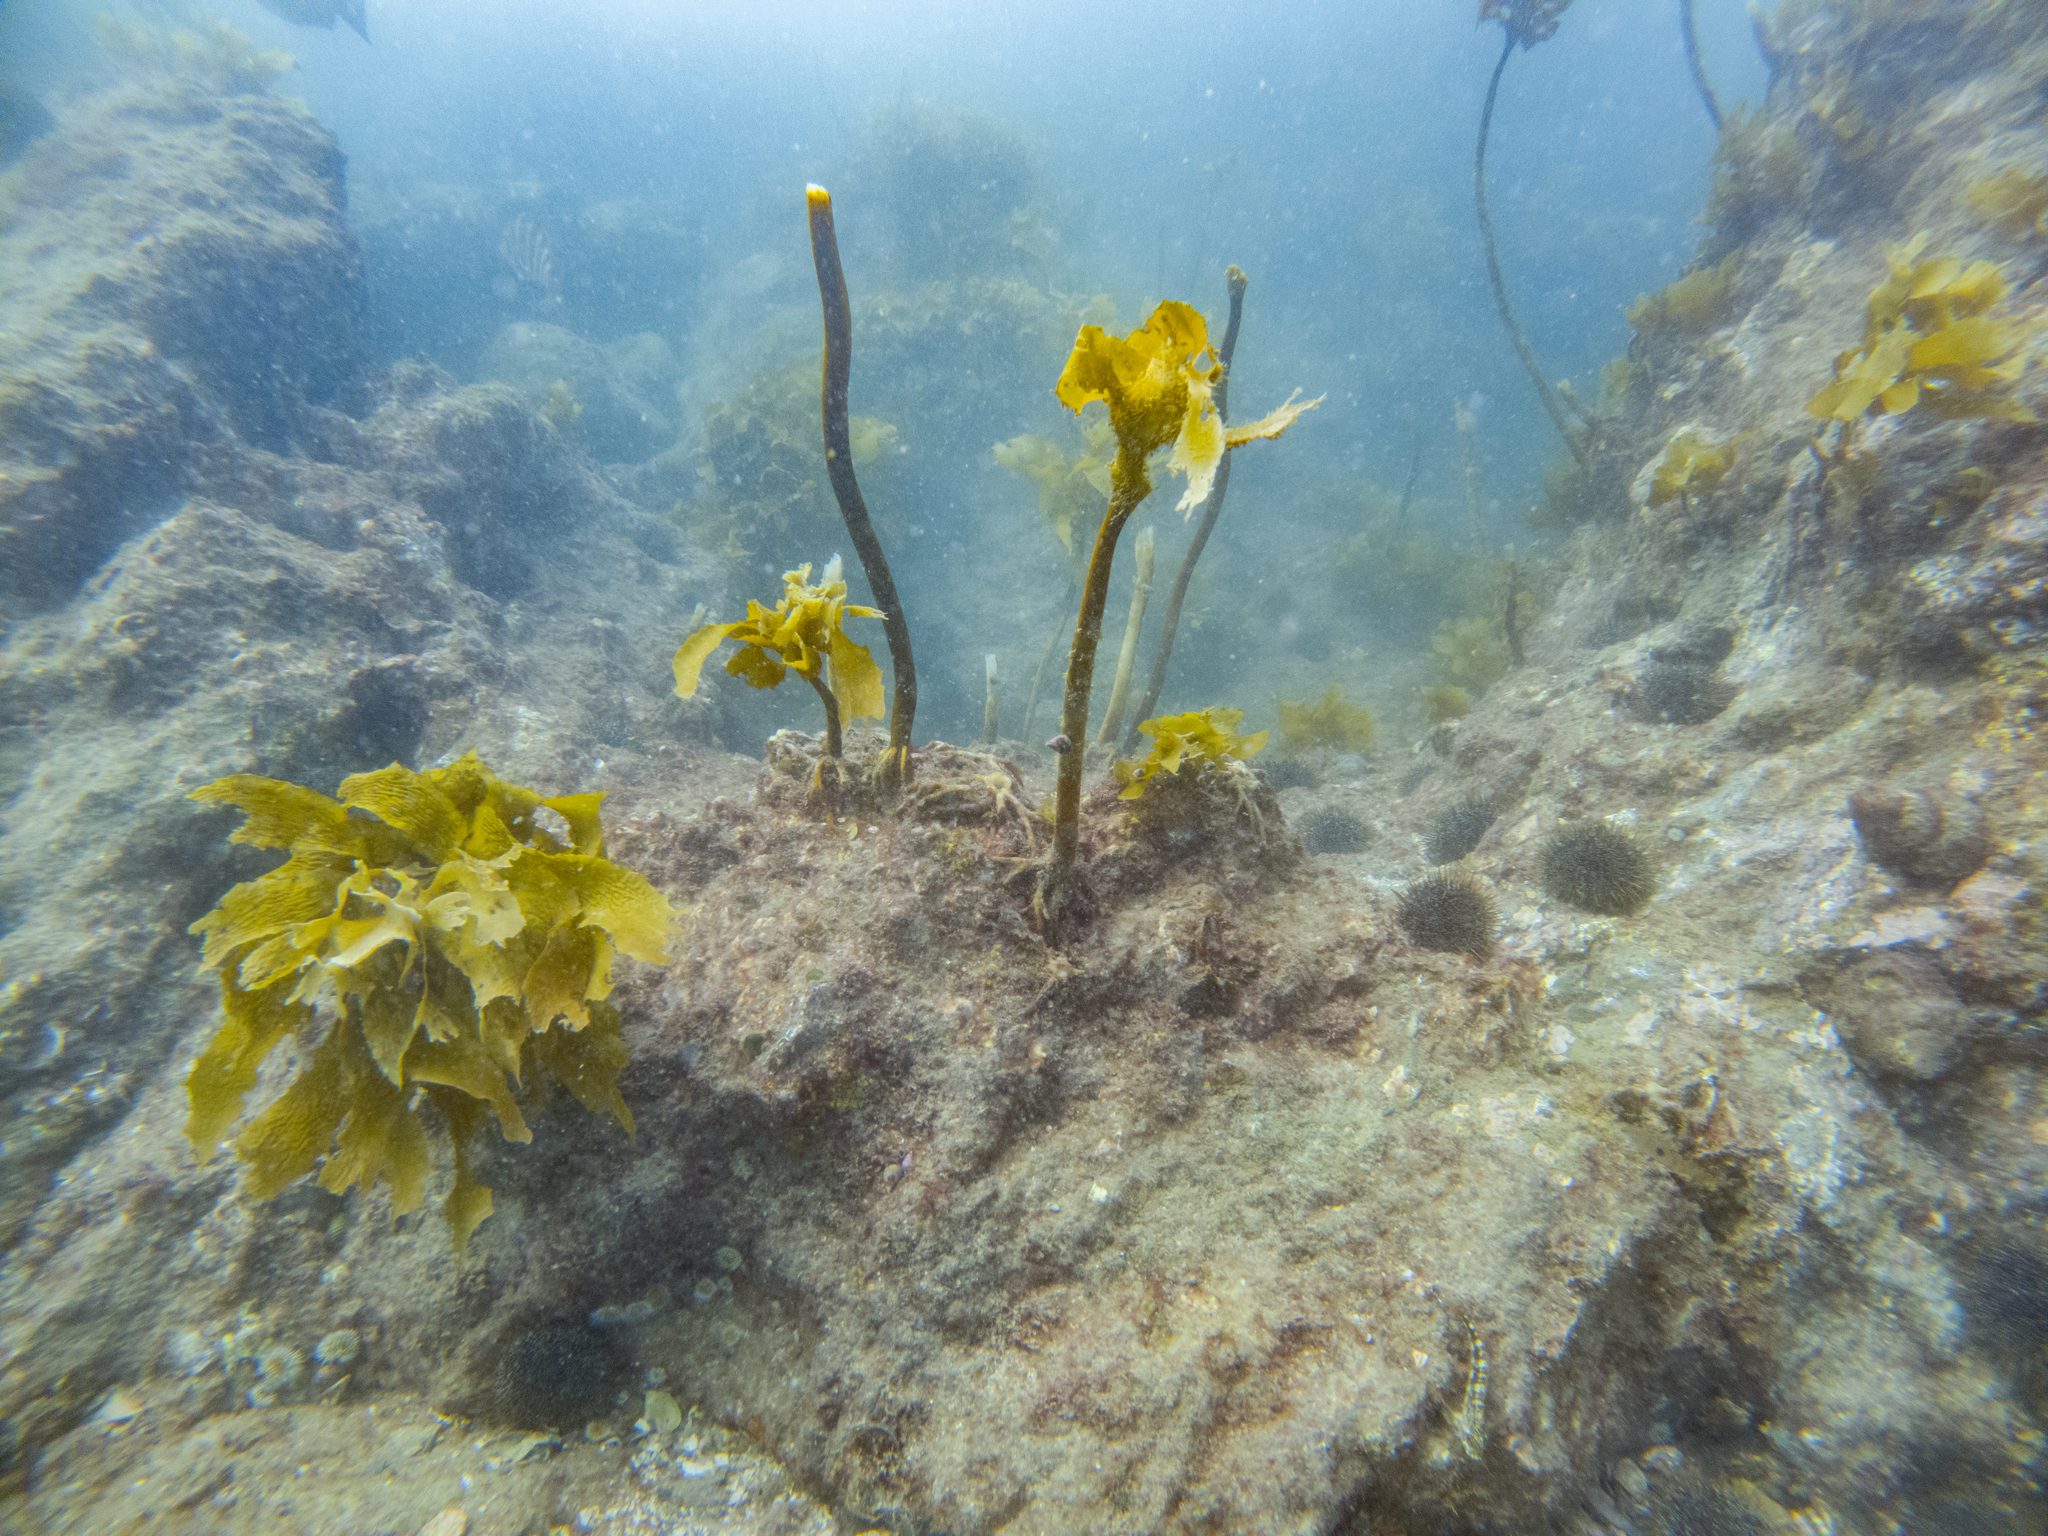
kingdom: Animalia
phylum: Echinodermata
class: Echinoidea
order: Camarodonta
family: Echinometridae
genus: Evechinus
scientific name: Evechinus chloroticus
